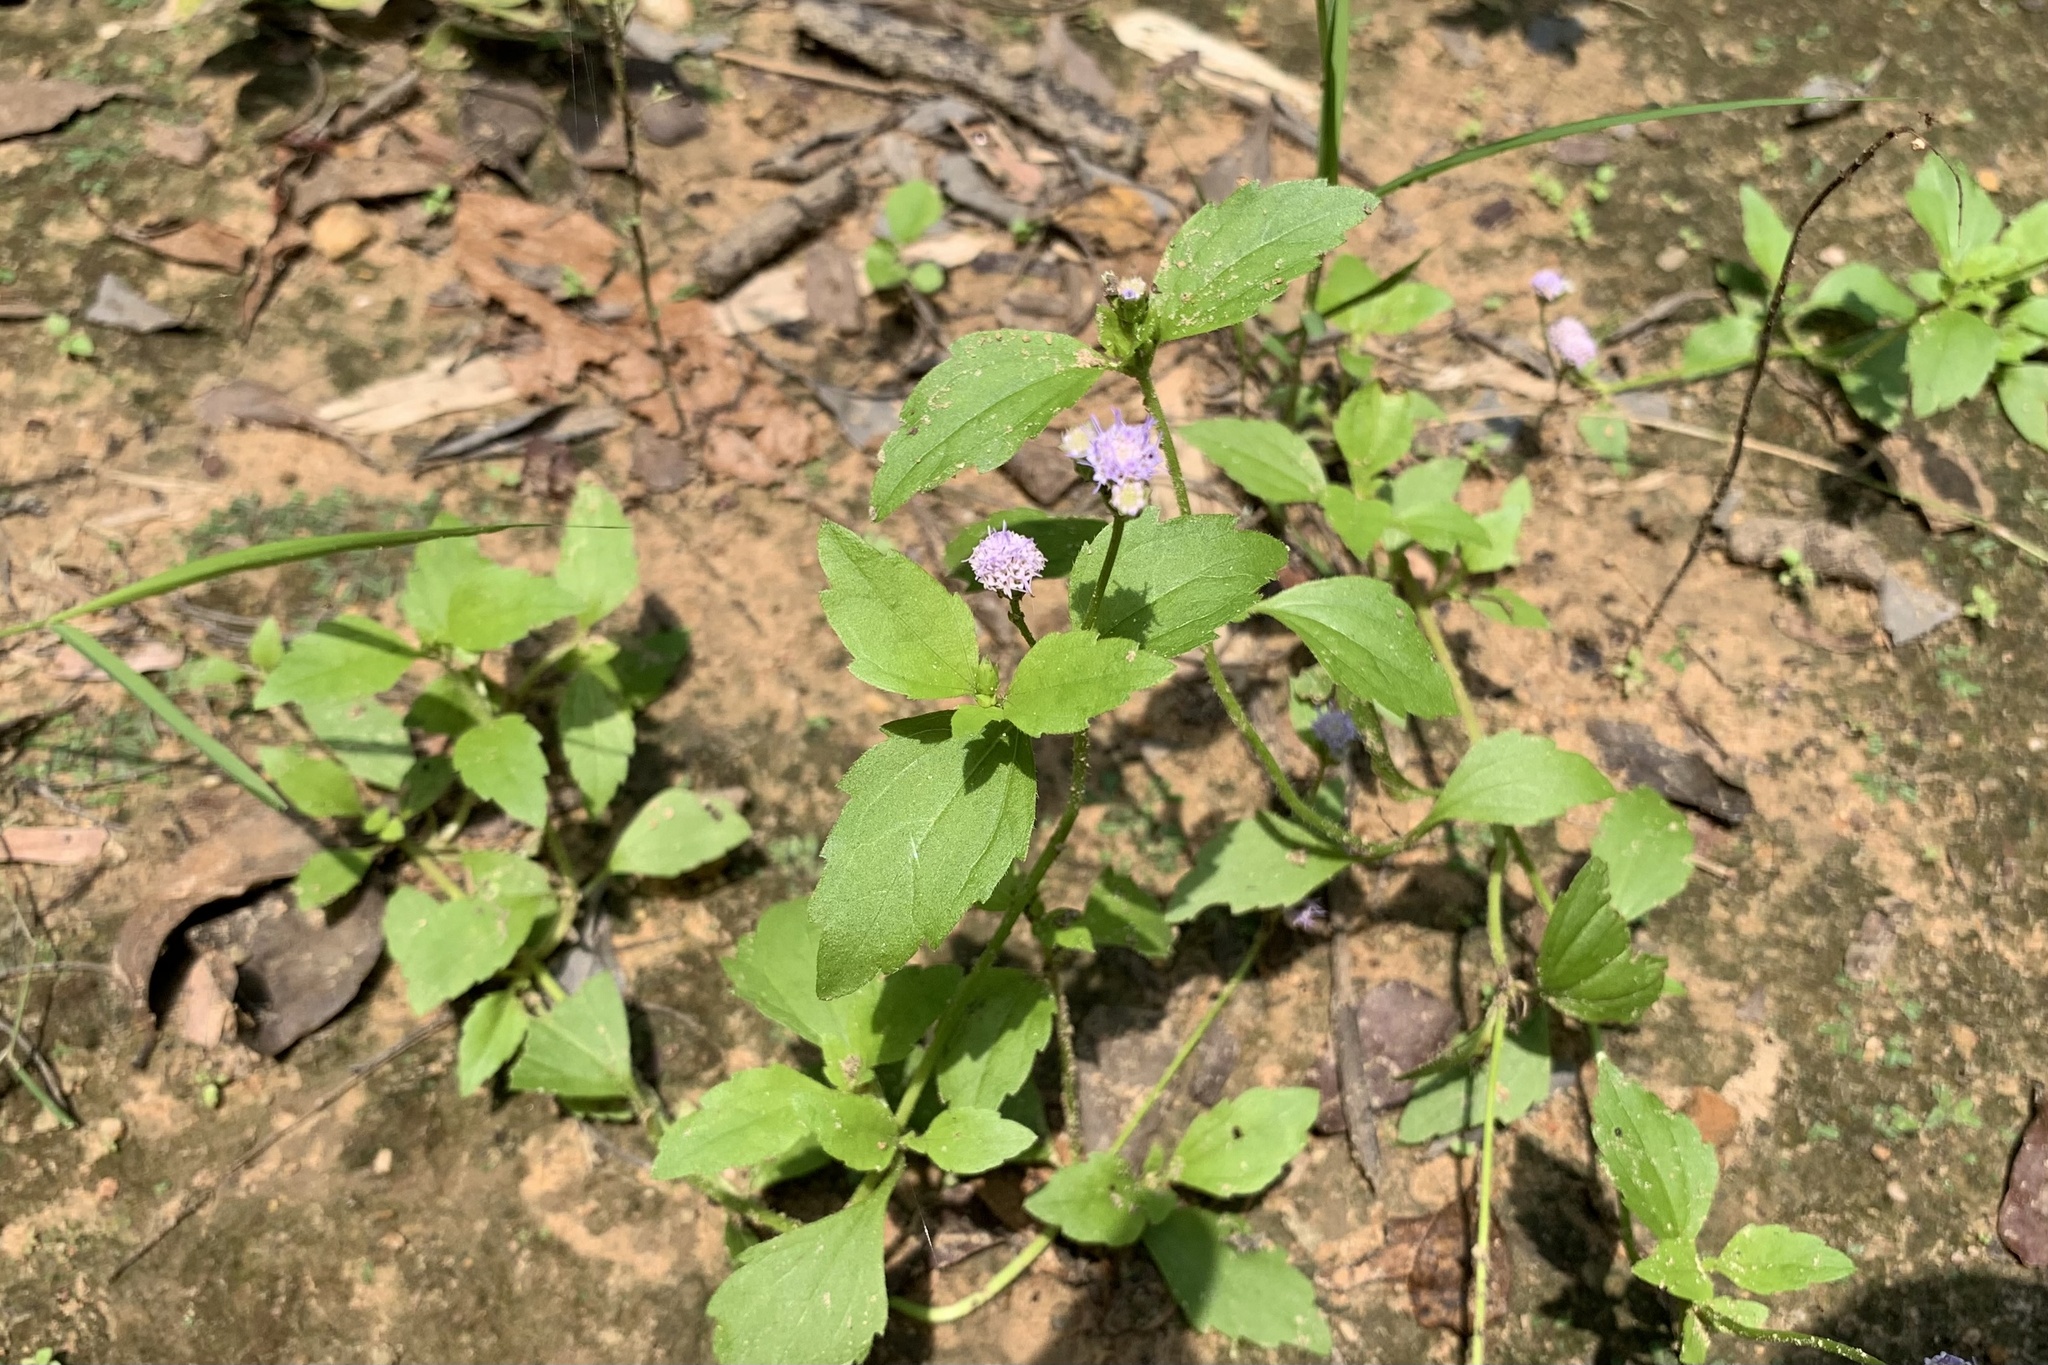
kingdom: Plantae
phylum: Tracheophyta
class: Magnoliopsida
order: Asterales
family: Asteraceae
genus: Praxelis
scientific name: Praxelis clematidea
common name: Praxelis
